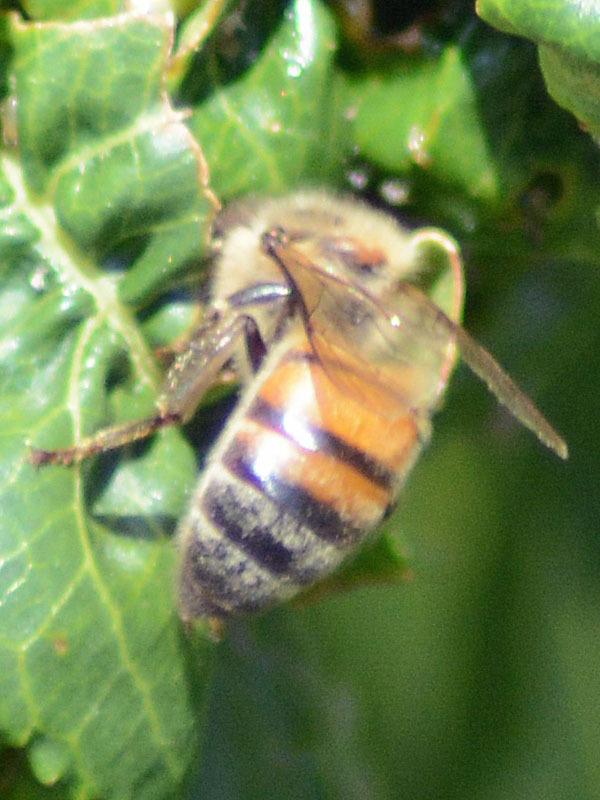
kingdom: Animalia
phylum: Arthropoda
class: Insecta
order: Hymenoptera
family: Apidae
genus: Apis
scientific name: Apis mellifera
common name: Honey bee
